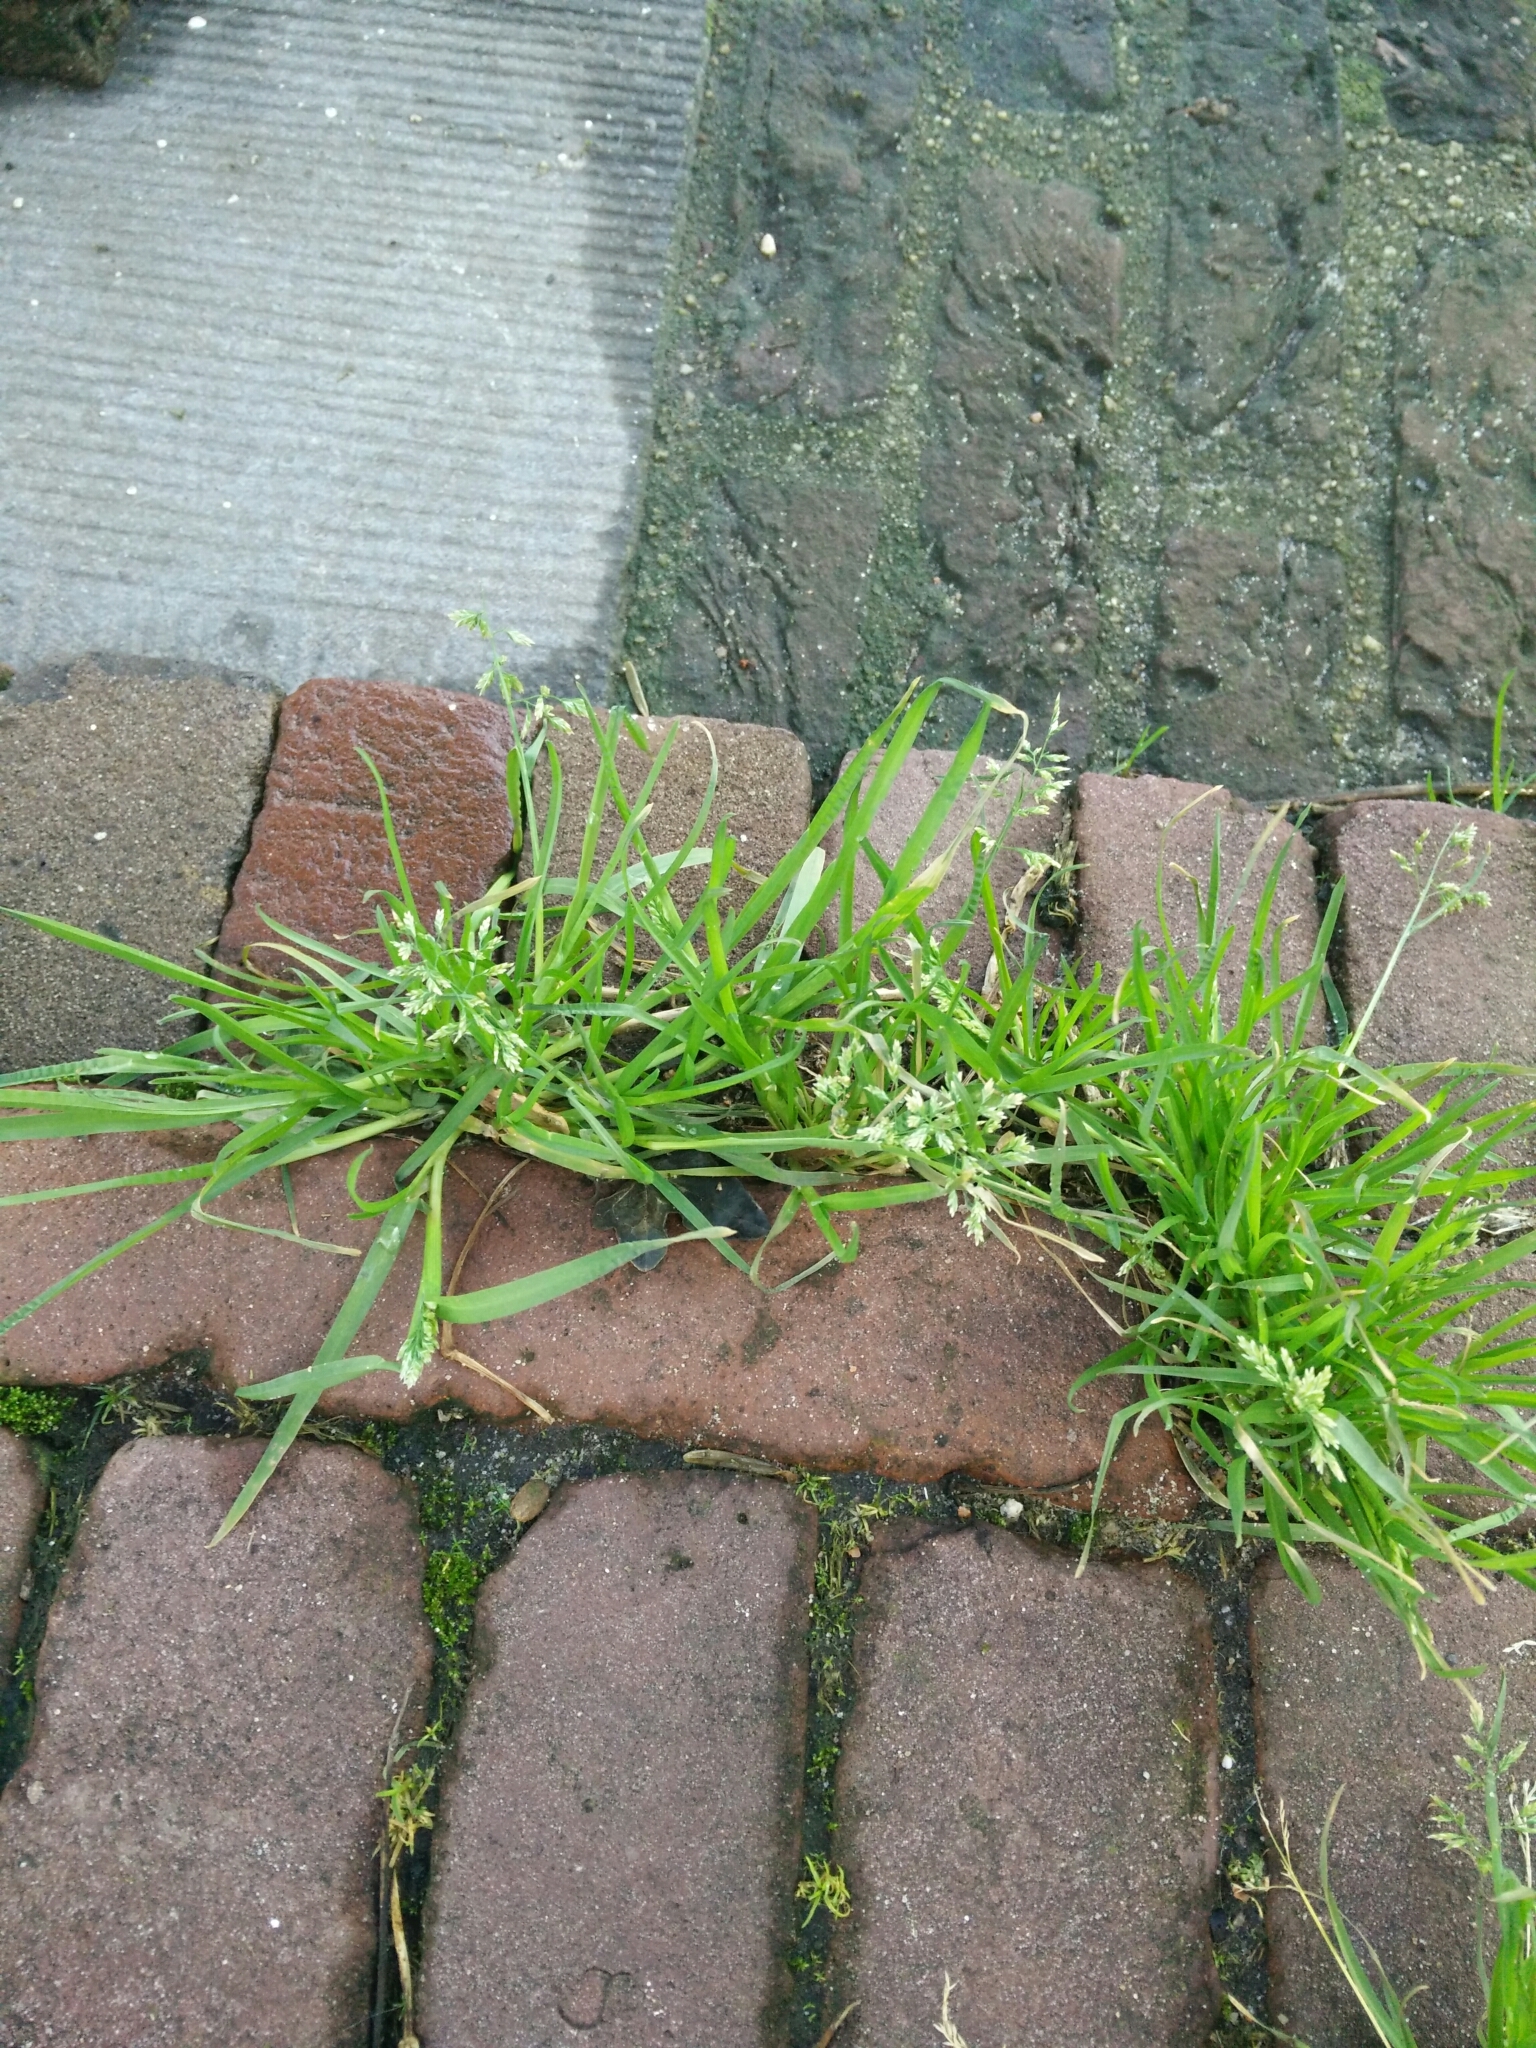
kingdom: Plantae
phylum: Tracheophyta
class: Liliopsida
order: Poales
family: Poaceae
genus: Poa
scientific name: Poa annua
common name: Annual bluegrass
